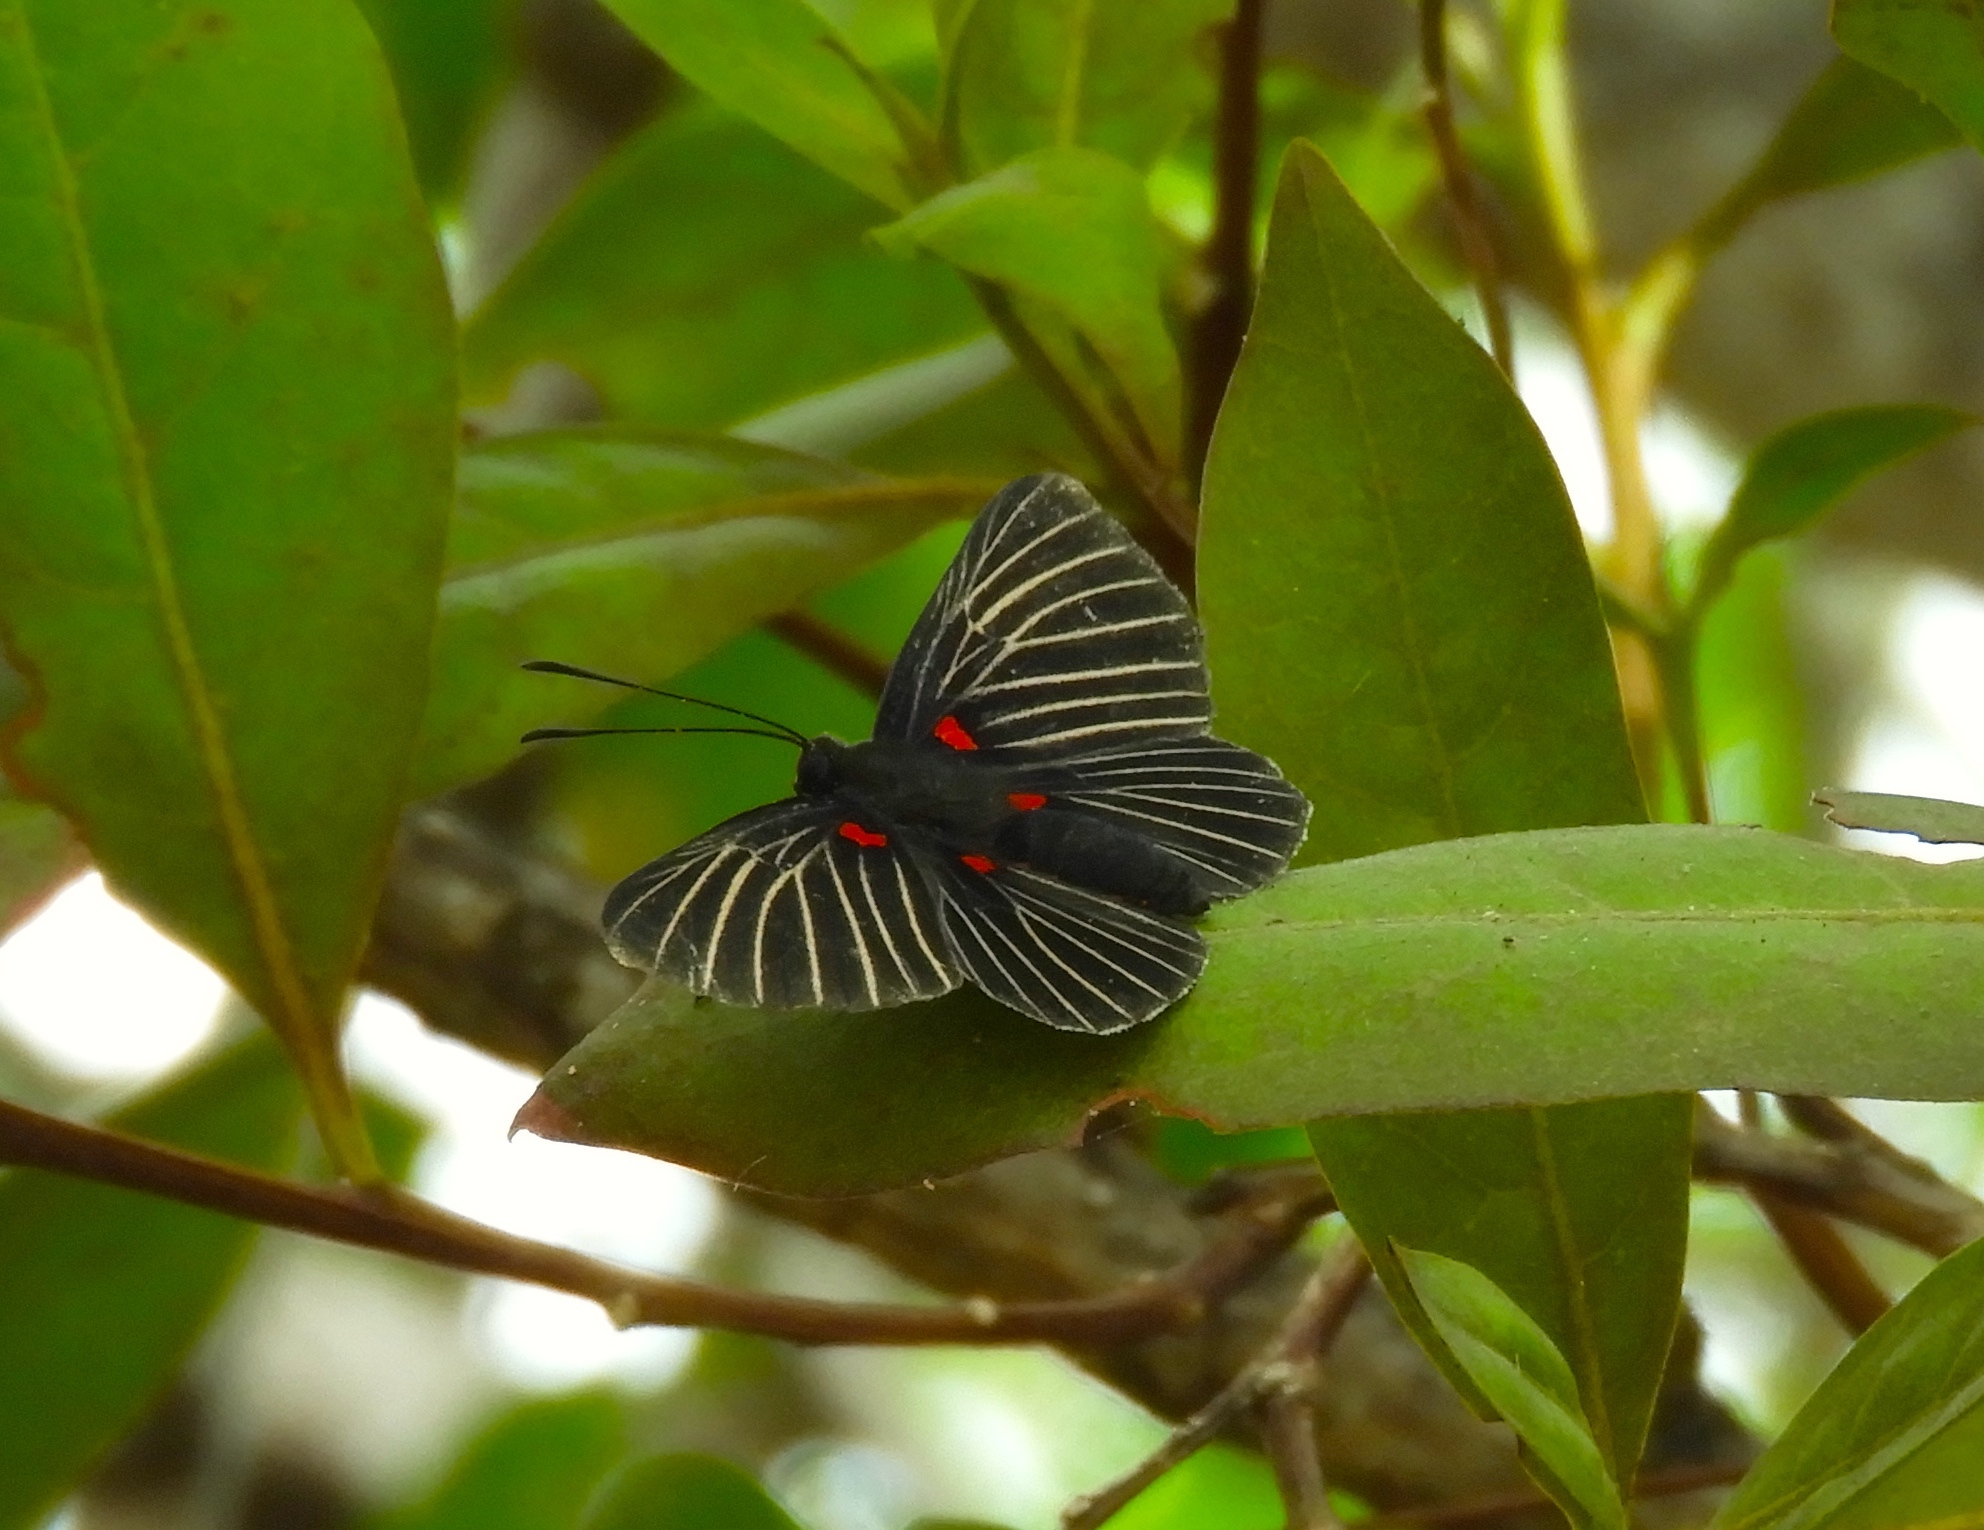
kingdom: Animalia
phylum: Arthropoda
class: Insecta
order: Lepidoptera
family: Lycaenidae
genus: Melanis
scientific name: Melanis
